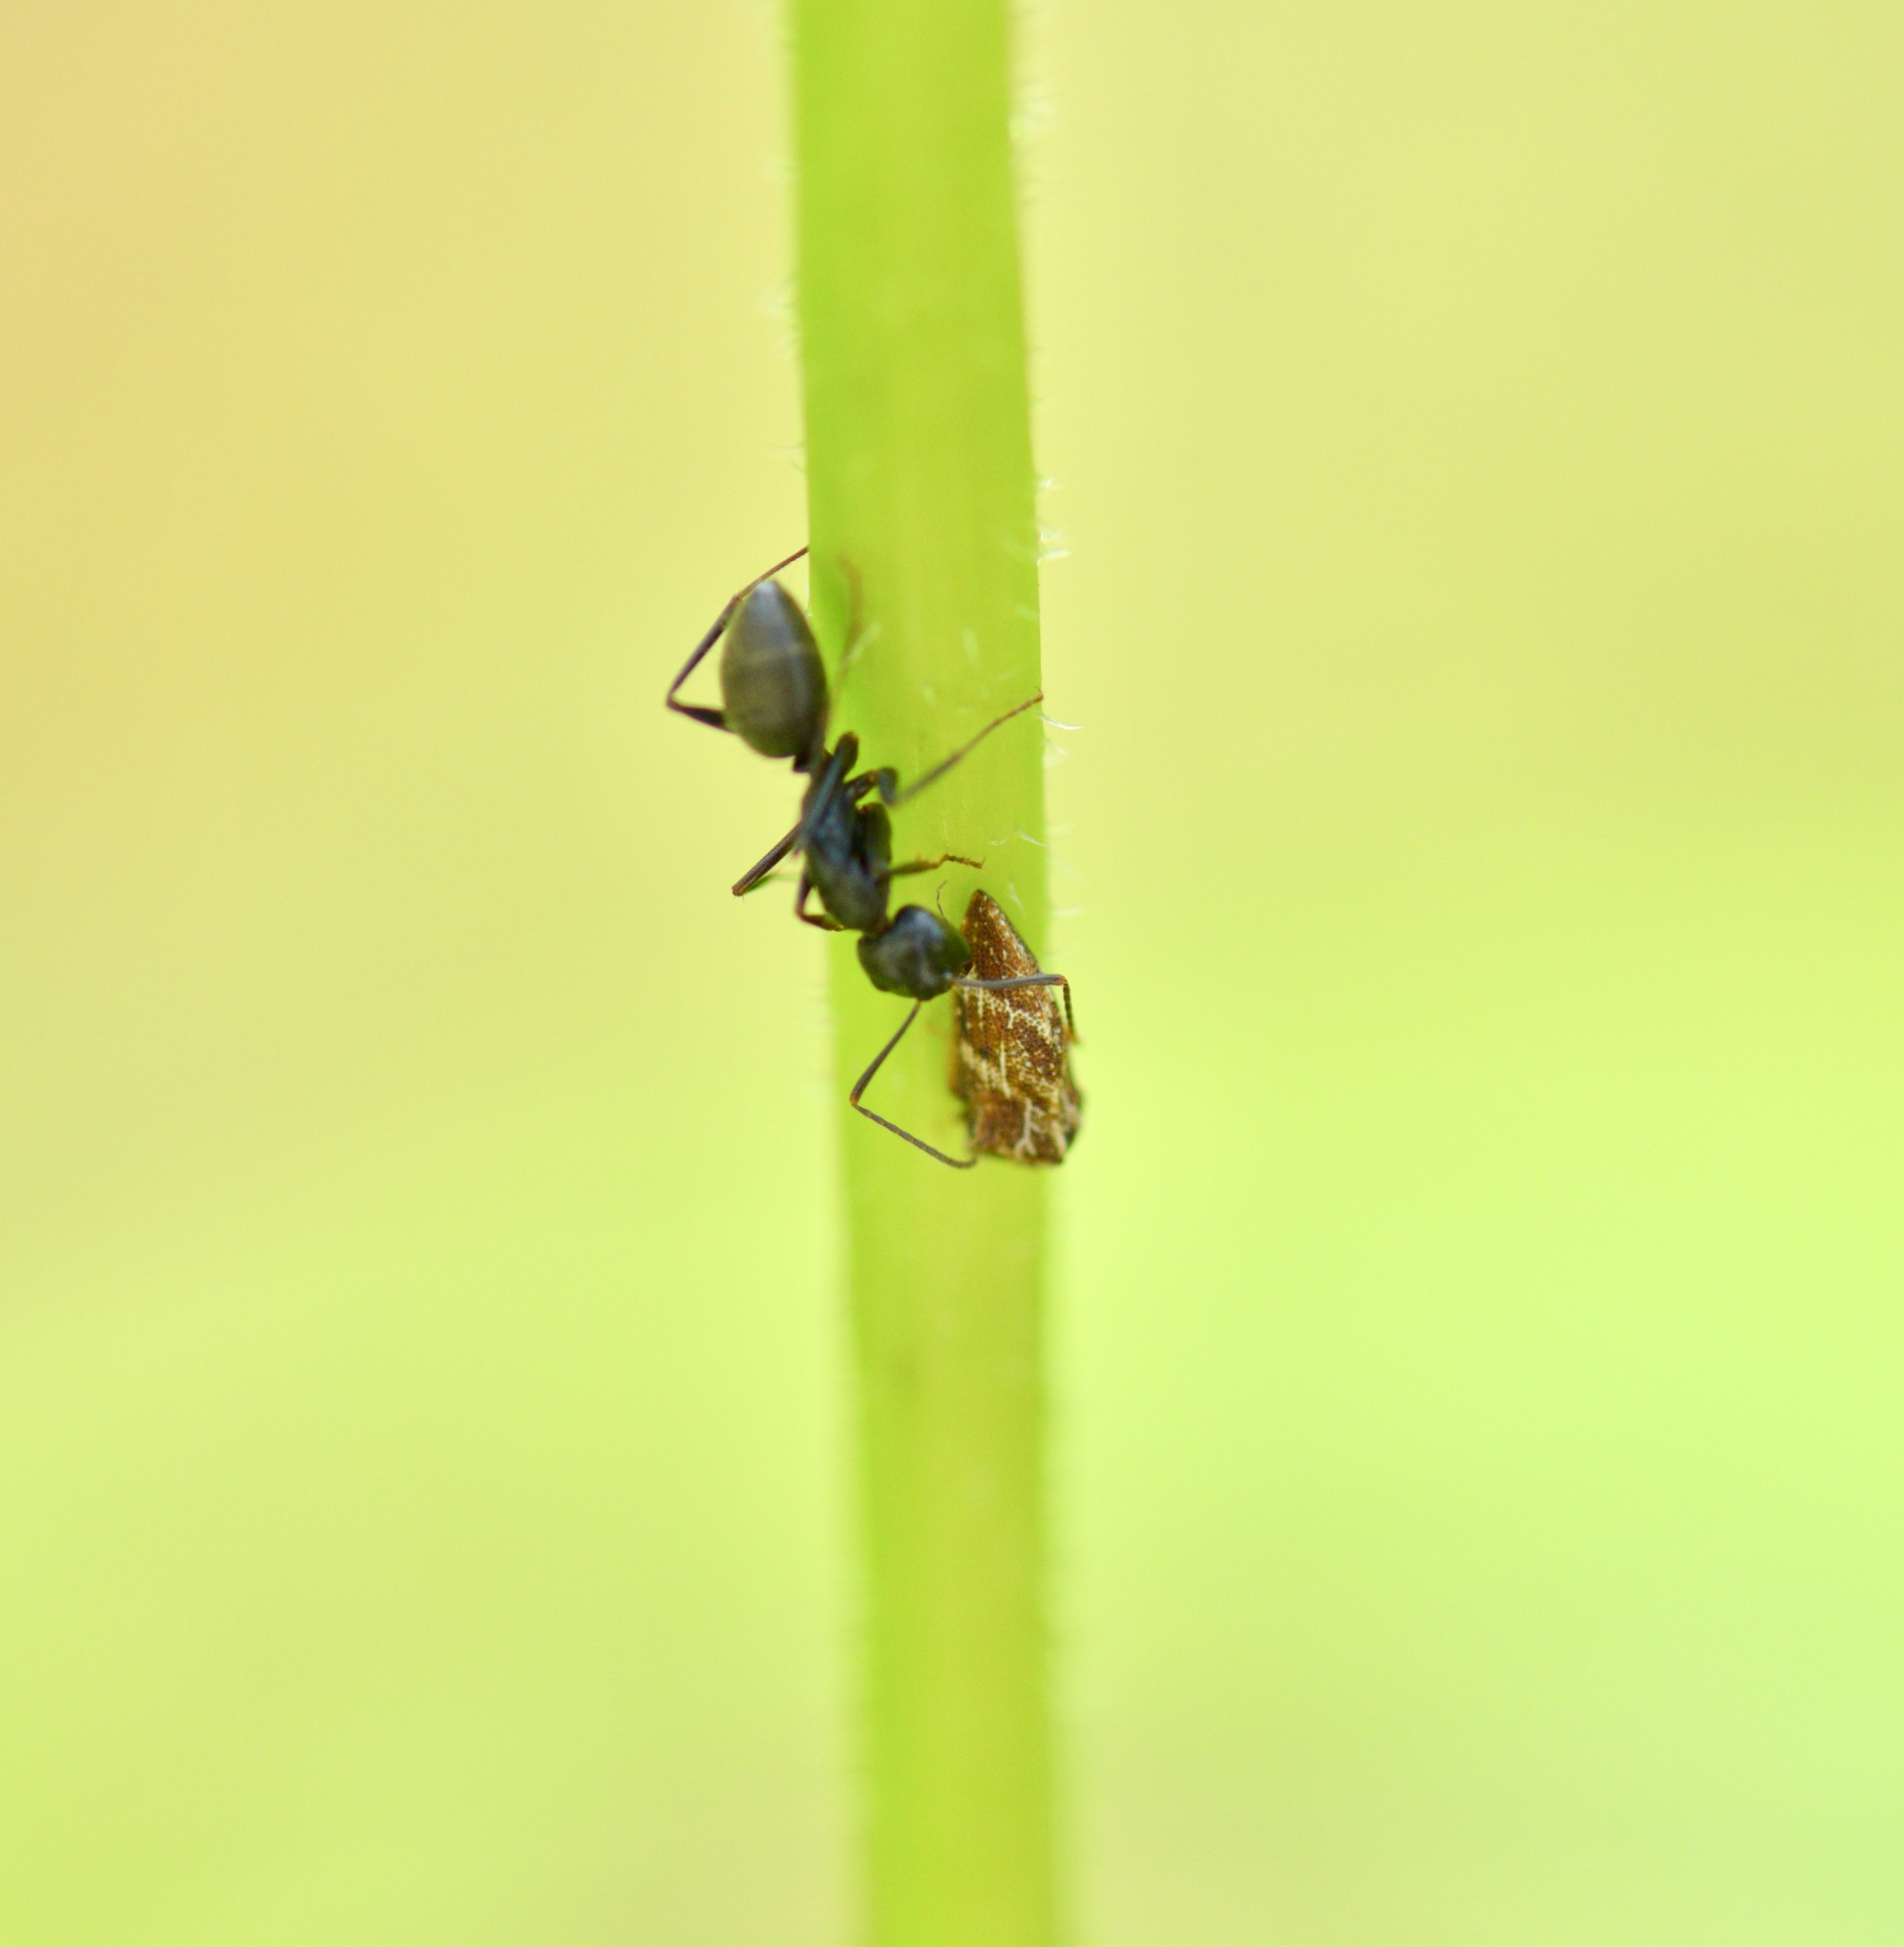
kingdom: Animalia
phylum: Arthropoda
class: Insecta
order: Hymenoptera
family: Formicidae
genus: Camponotus
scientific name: Camponotus pennsylvanicus
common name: Black carpenter ant
